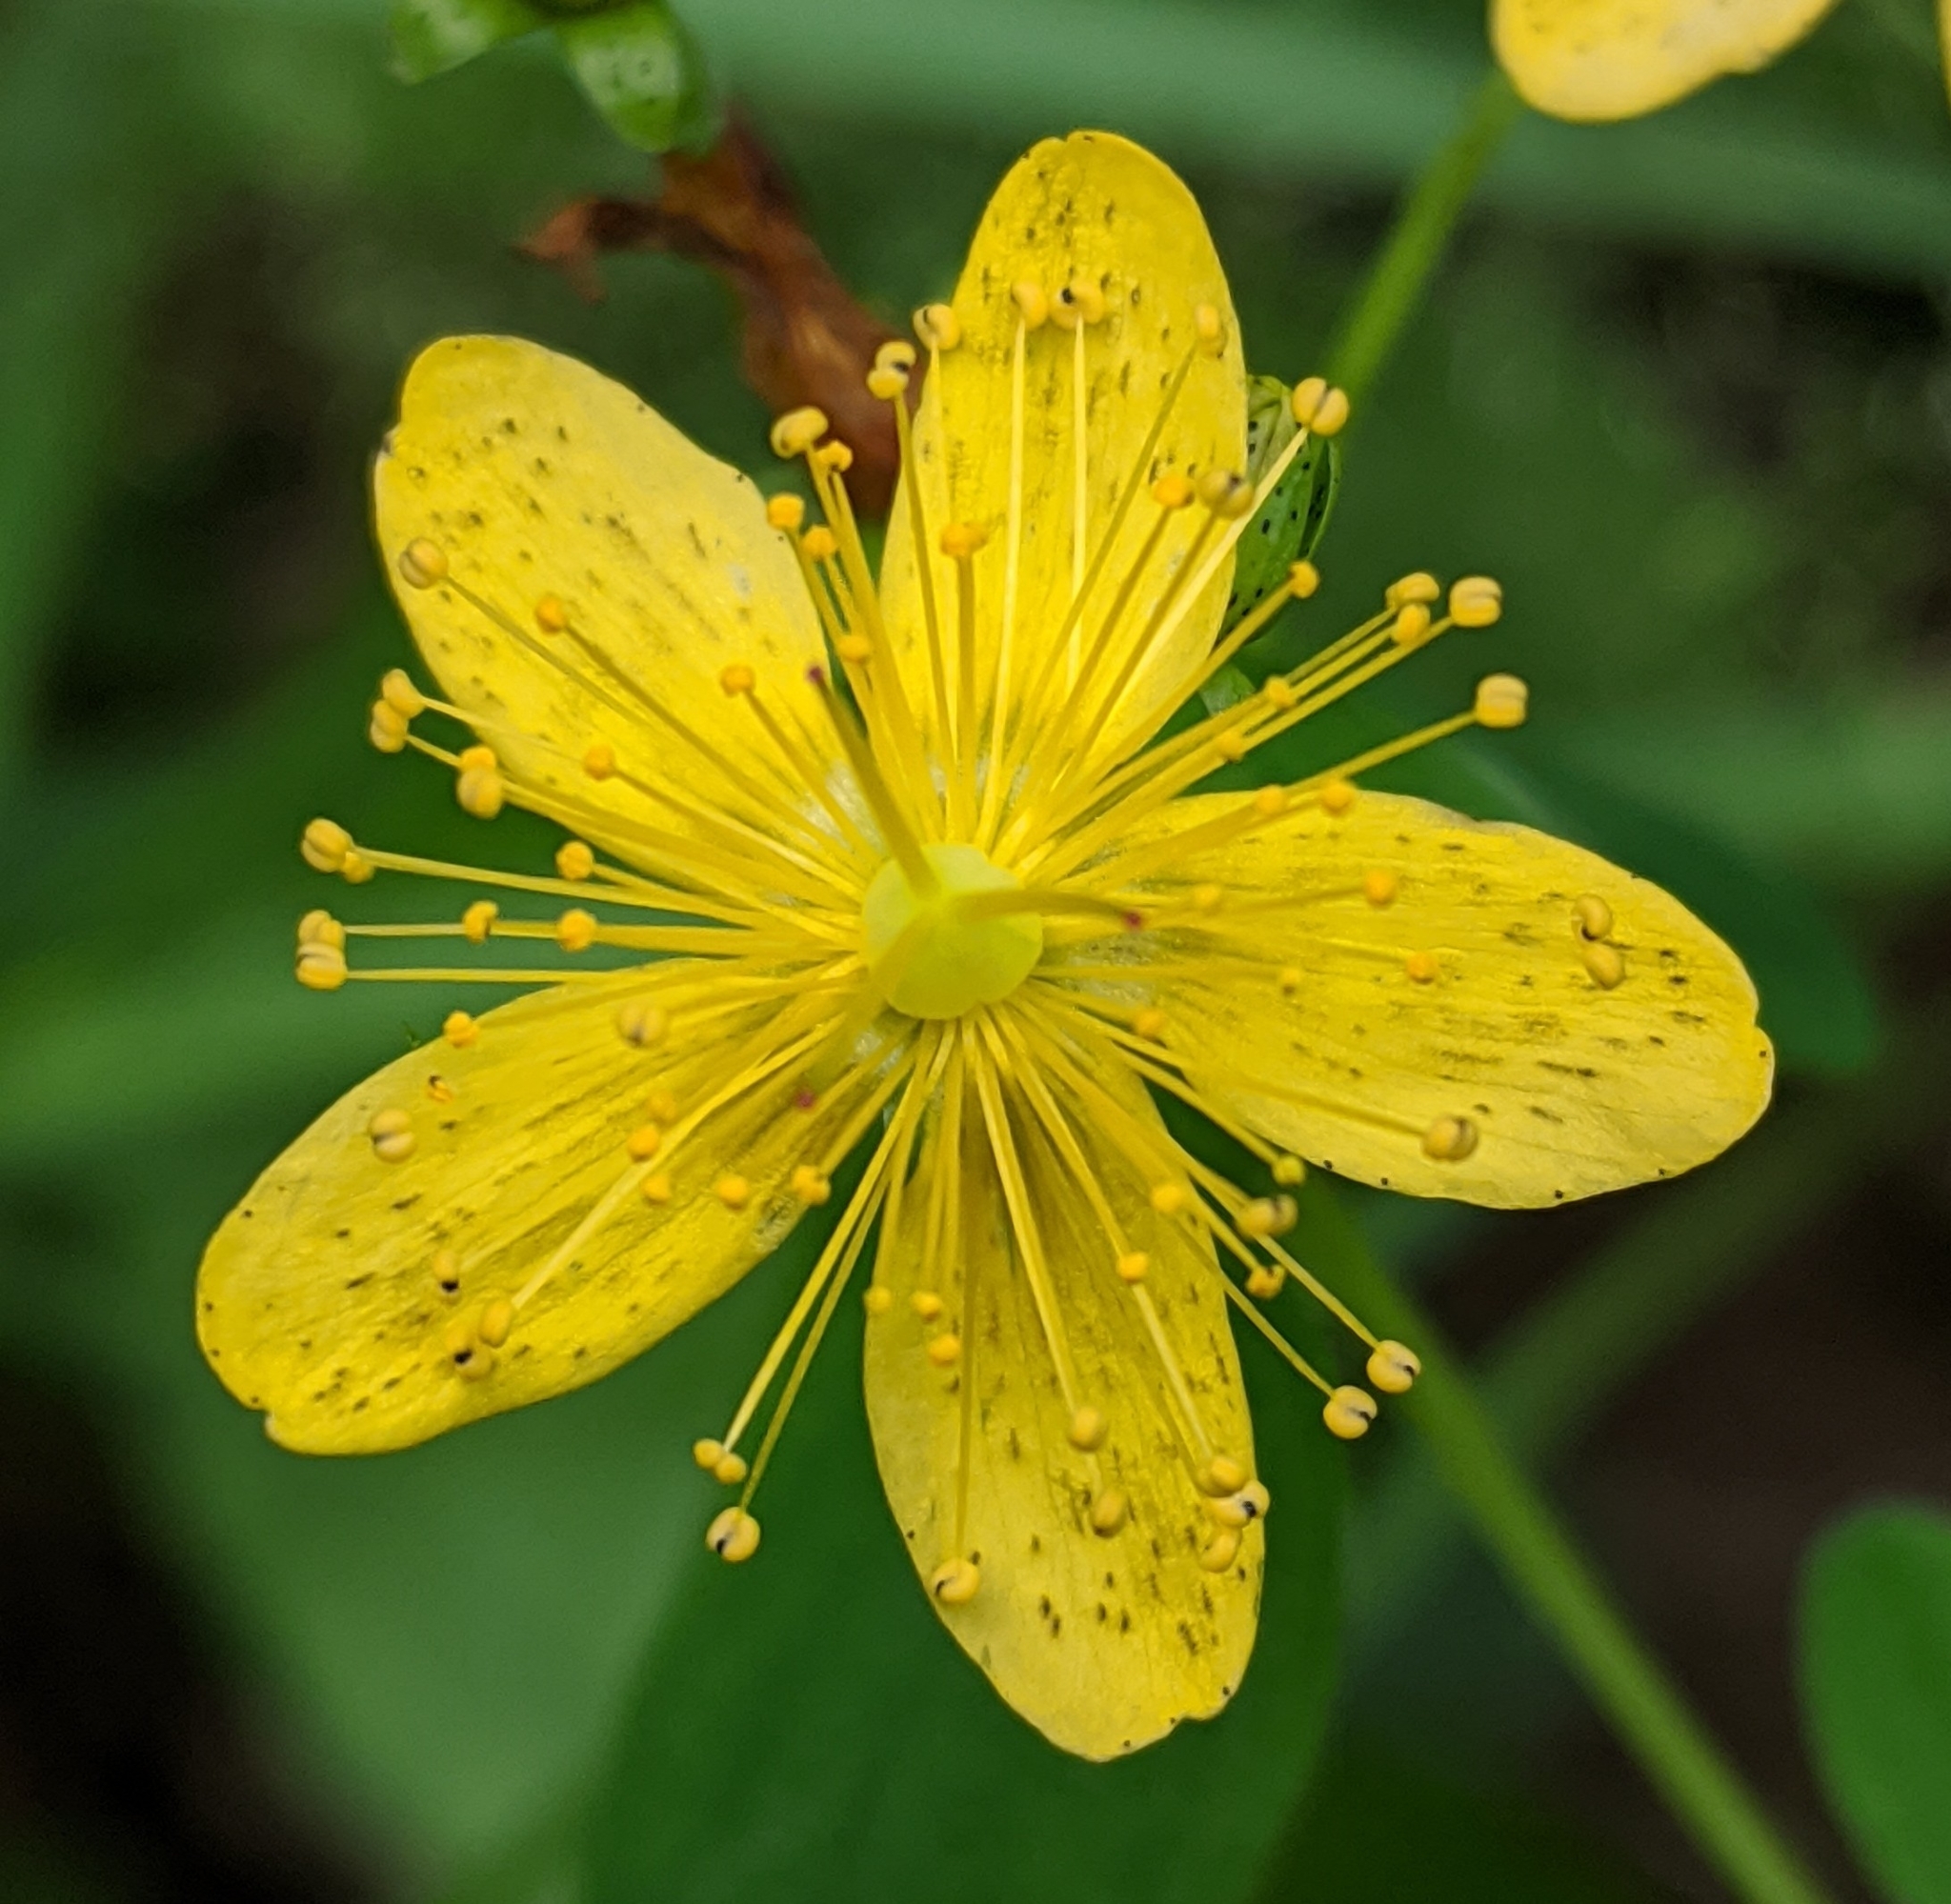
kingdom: Plantae
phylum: Tracheophyta
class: Magnoliopsida
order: Malpighiales
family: Hypericaceae
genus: Hypericum
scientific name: Hypericum maculatum
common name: Imperforate st. john's-wort
